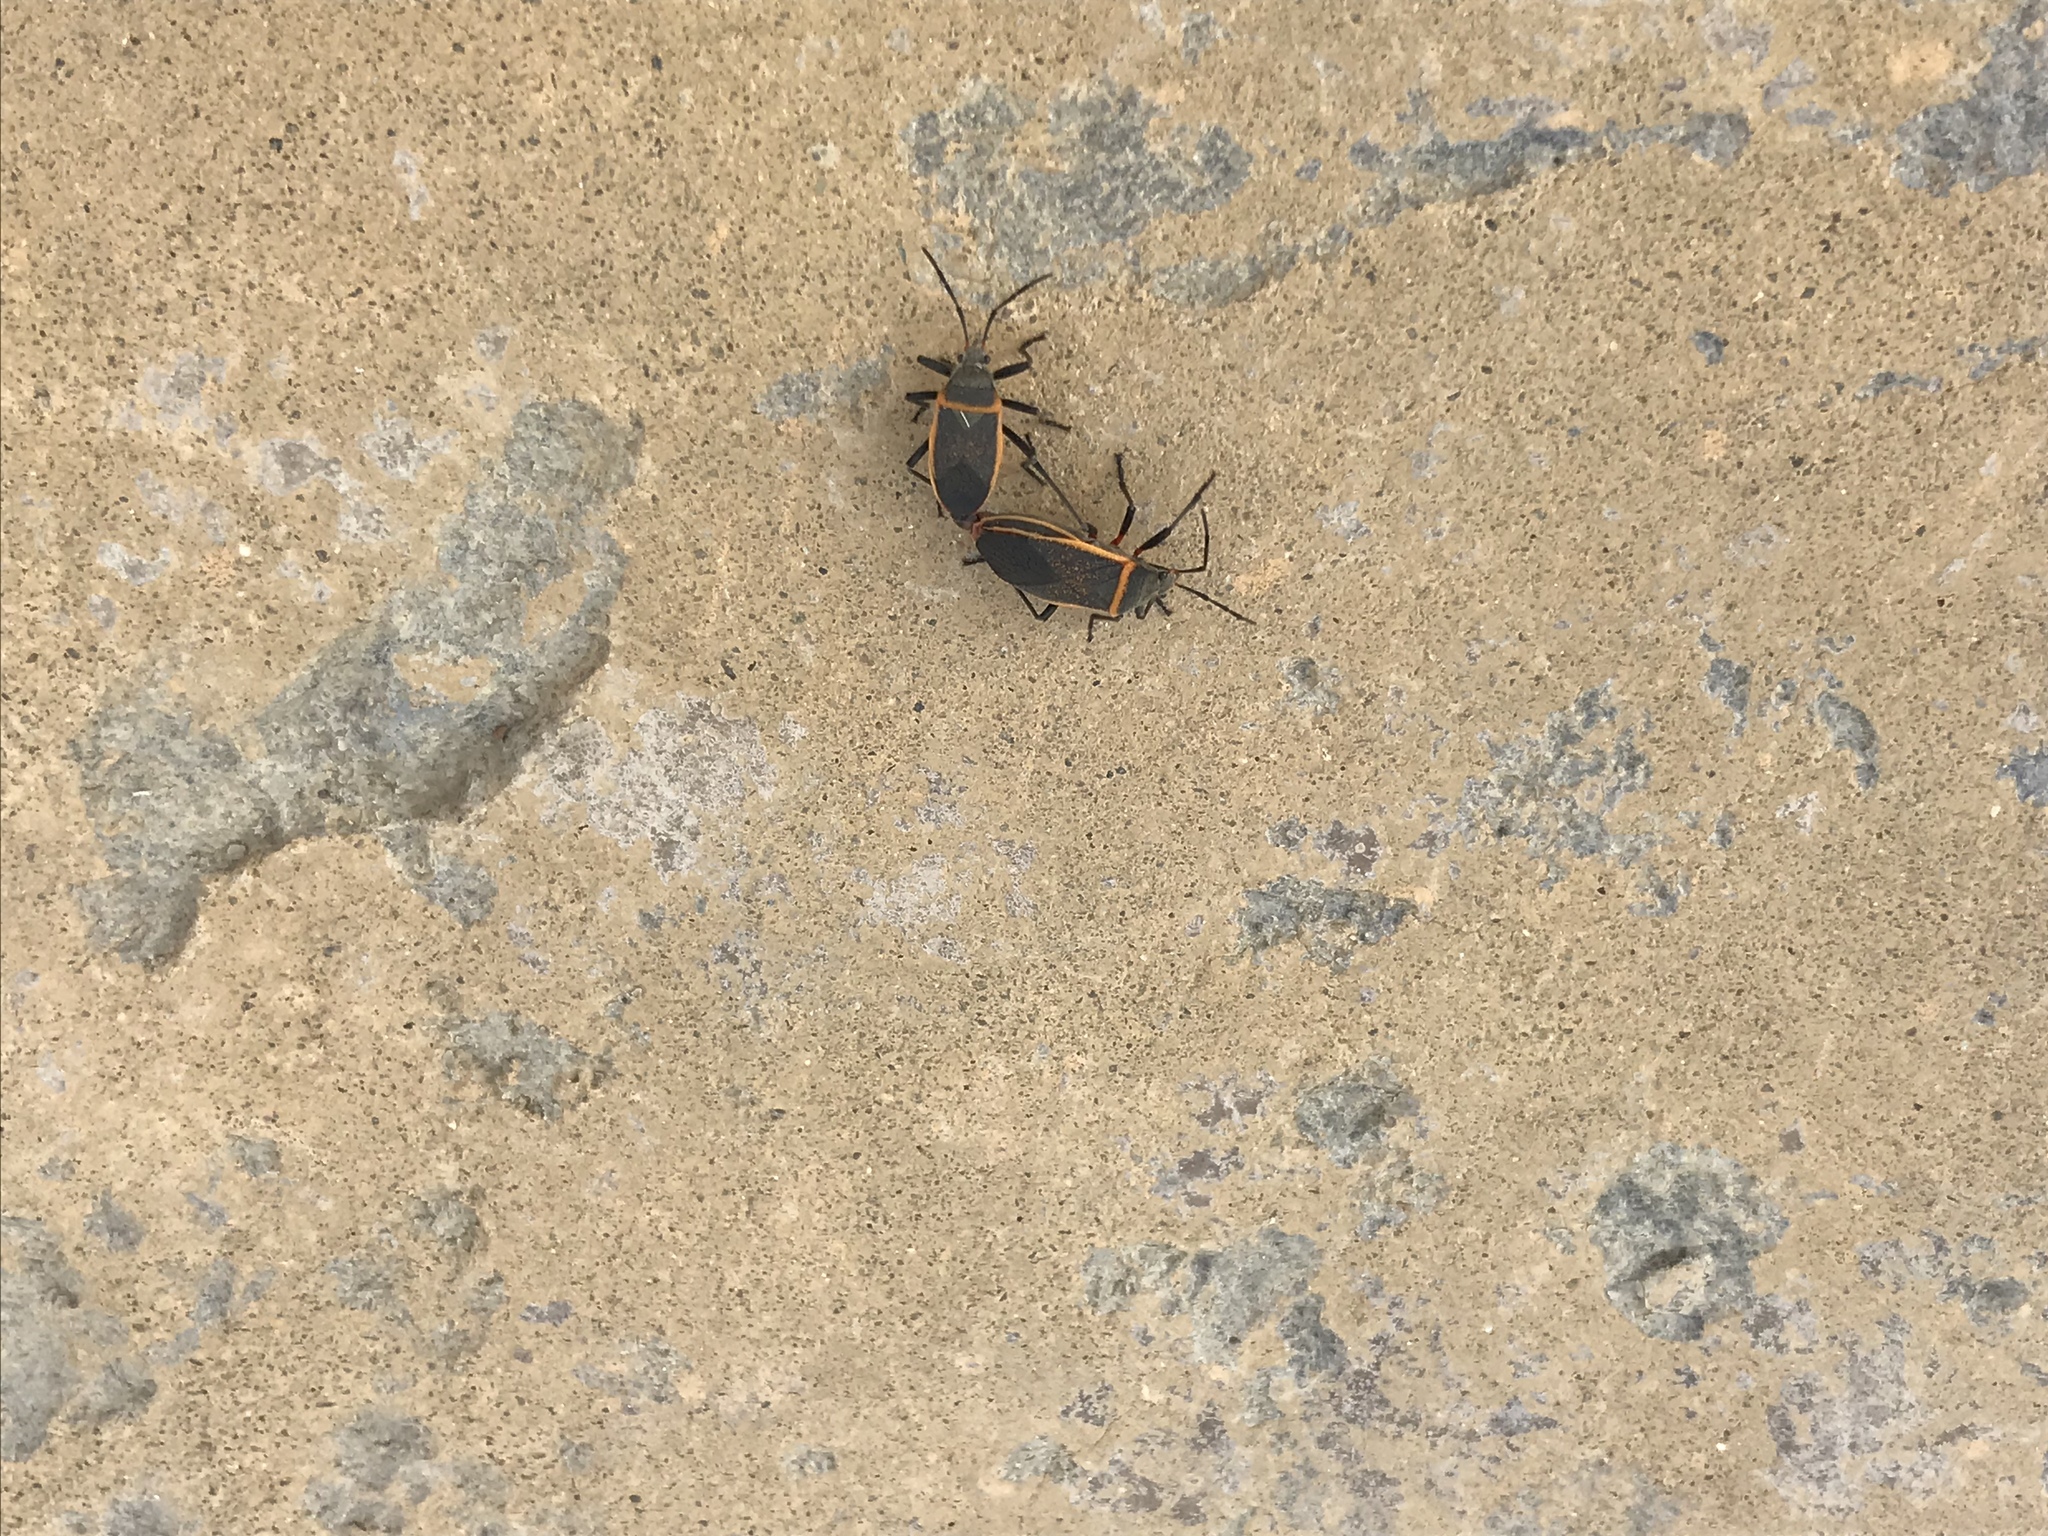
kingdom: Animalia
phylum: Arthropoda
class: Insecta
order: Hemiptera
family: Largidae
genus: Largus
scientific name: Largus californicus
